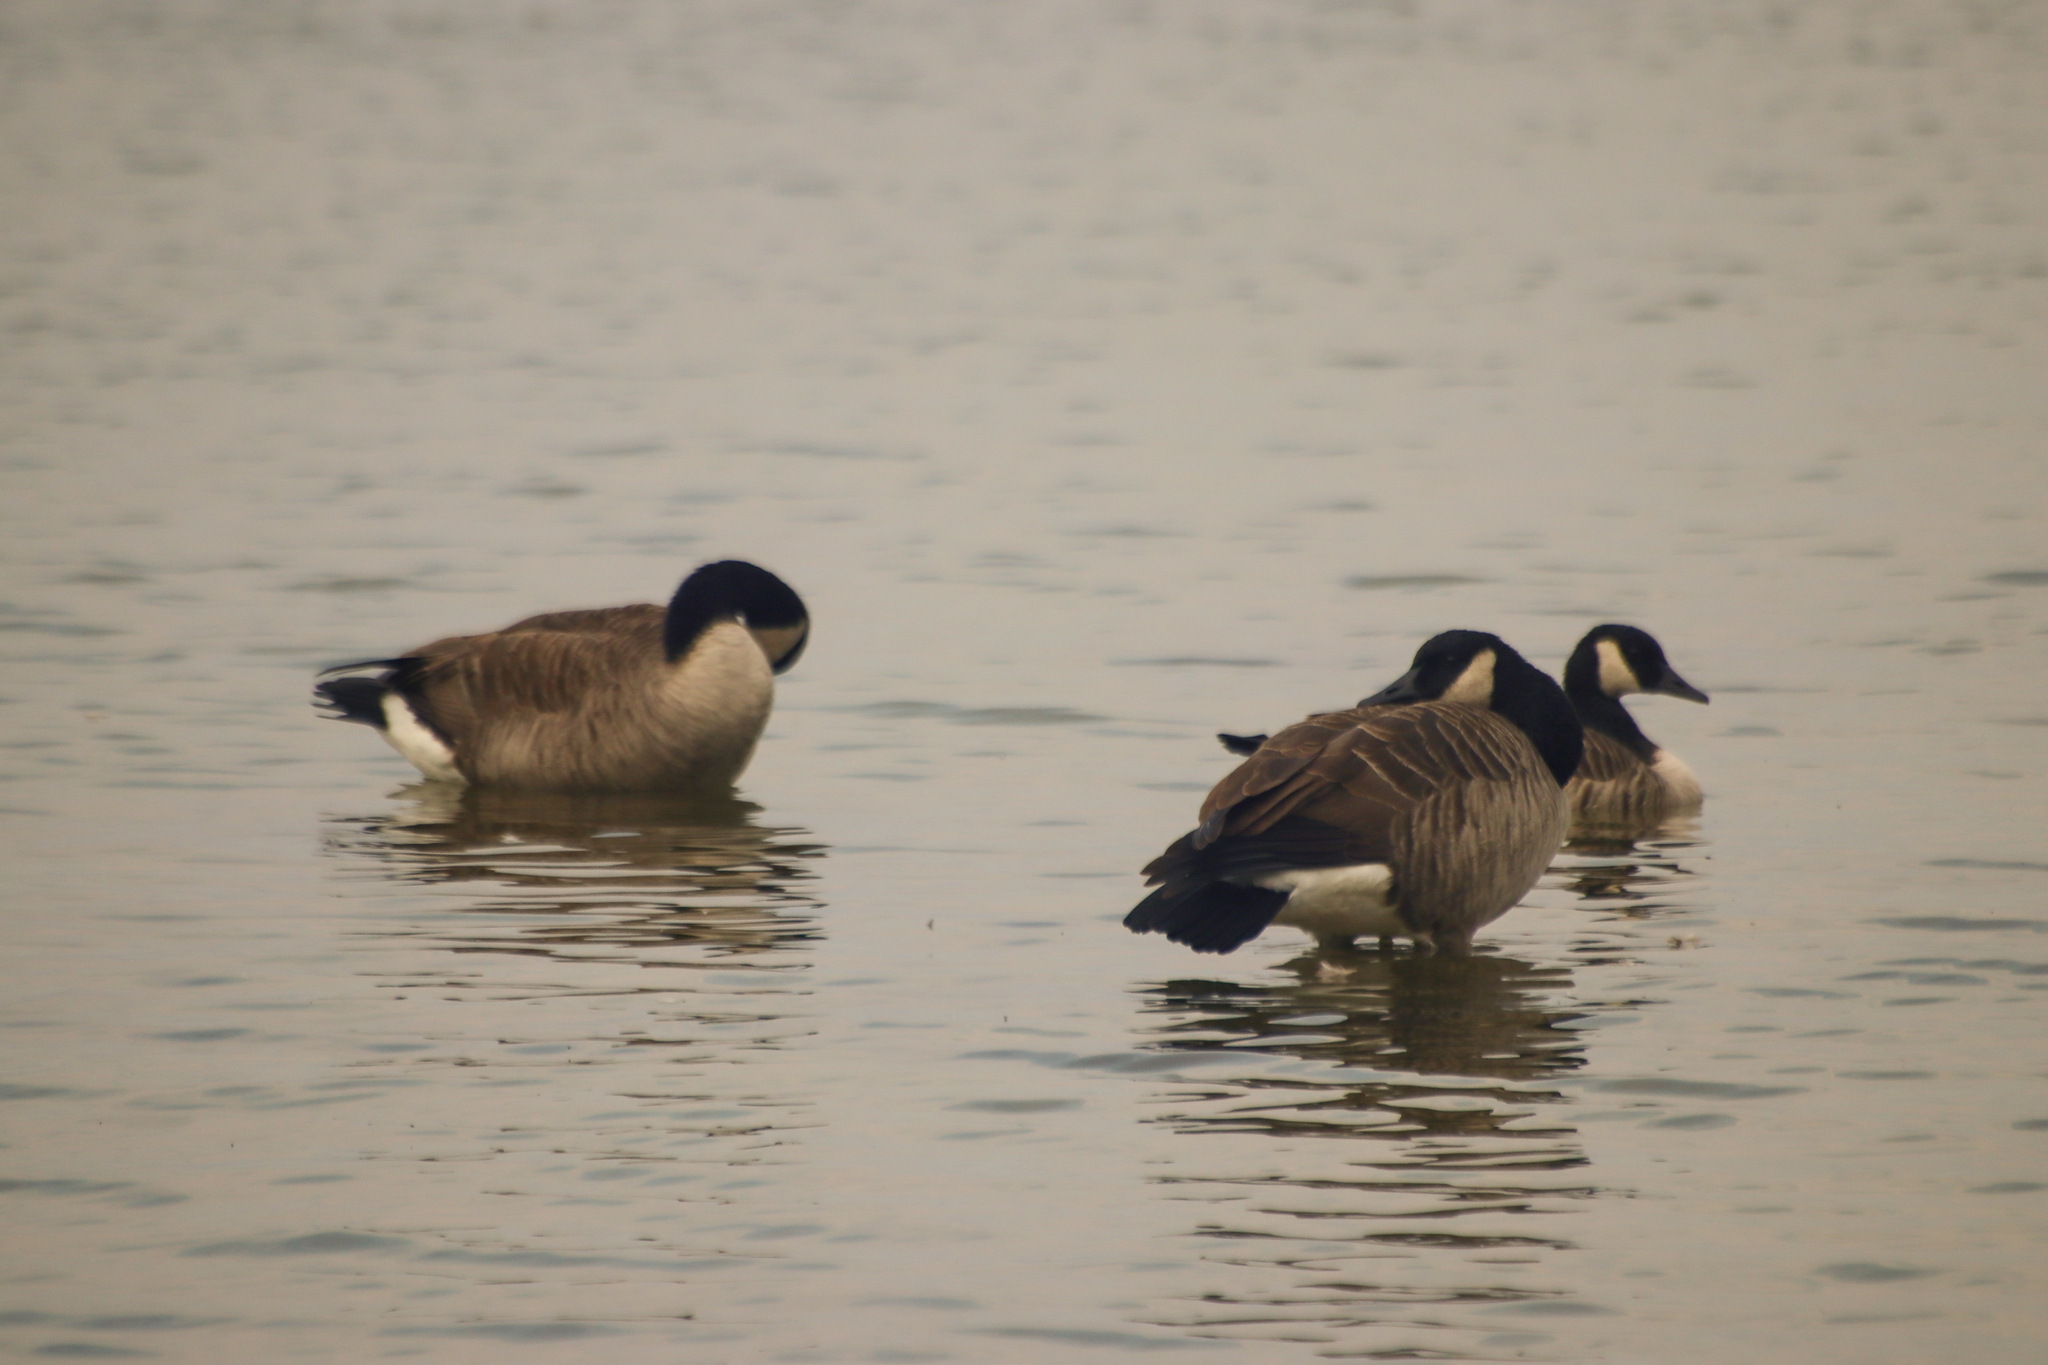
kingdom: Animalia
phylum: Chordata
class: Aves
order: Anseriformes
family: Anatidae
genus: Branta
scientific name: Branta canadensis
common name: Canada goose
